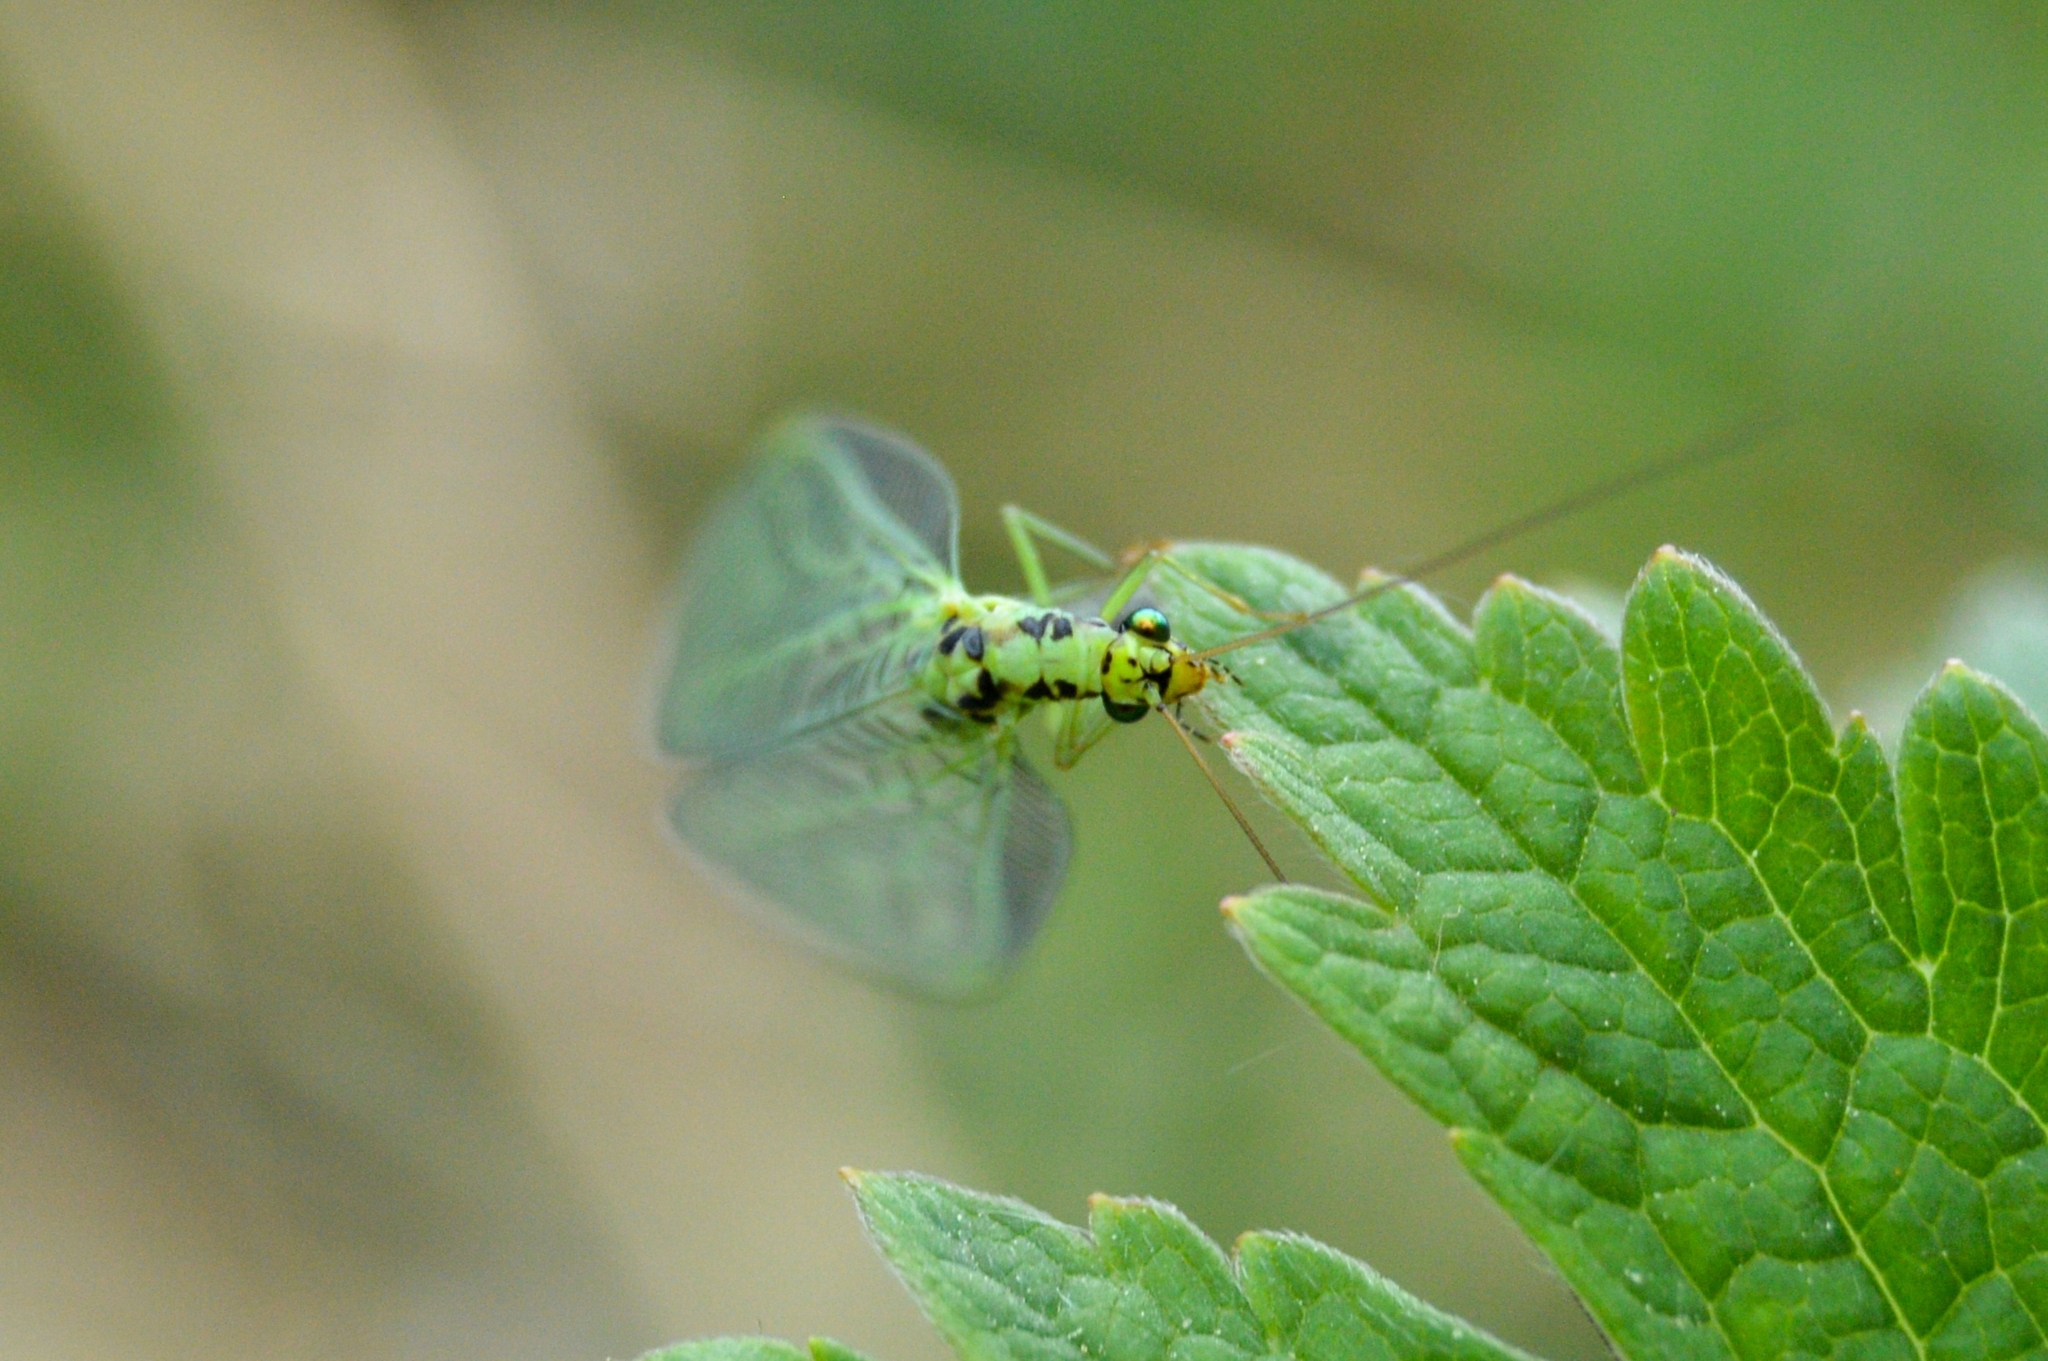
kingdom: Animalia
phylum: Arthropoda
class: Insecta
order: Neuroptera
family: Chrysopidae
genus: Chrysopa
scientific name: Chrysopa walkeri
